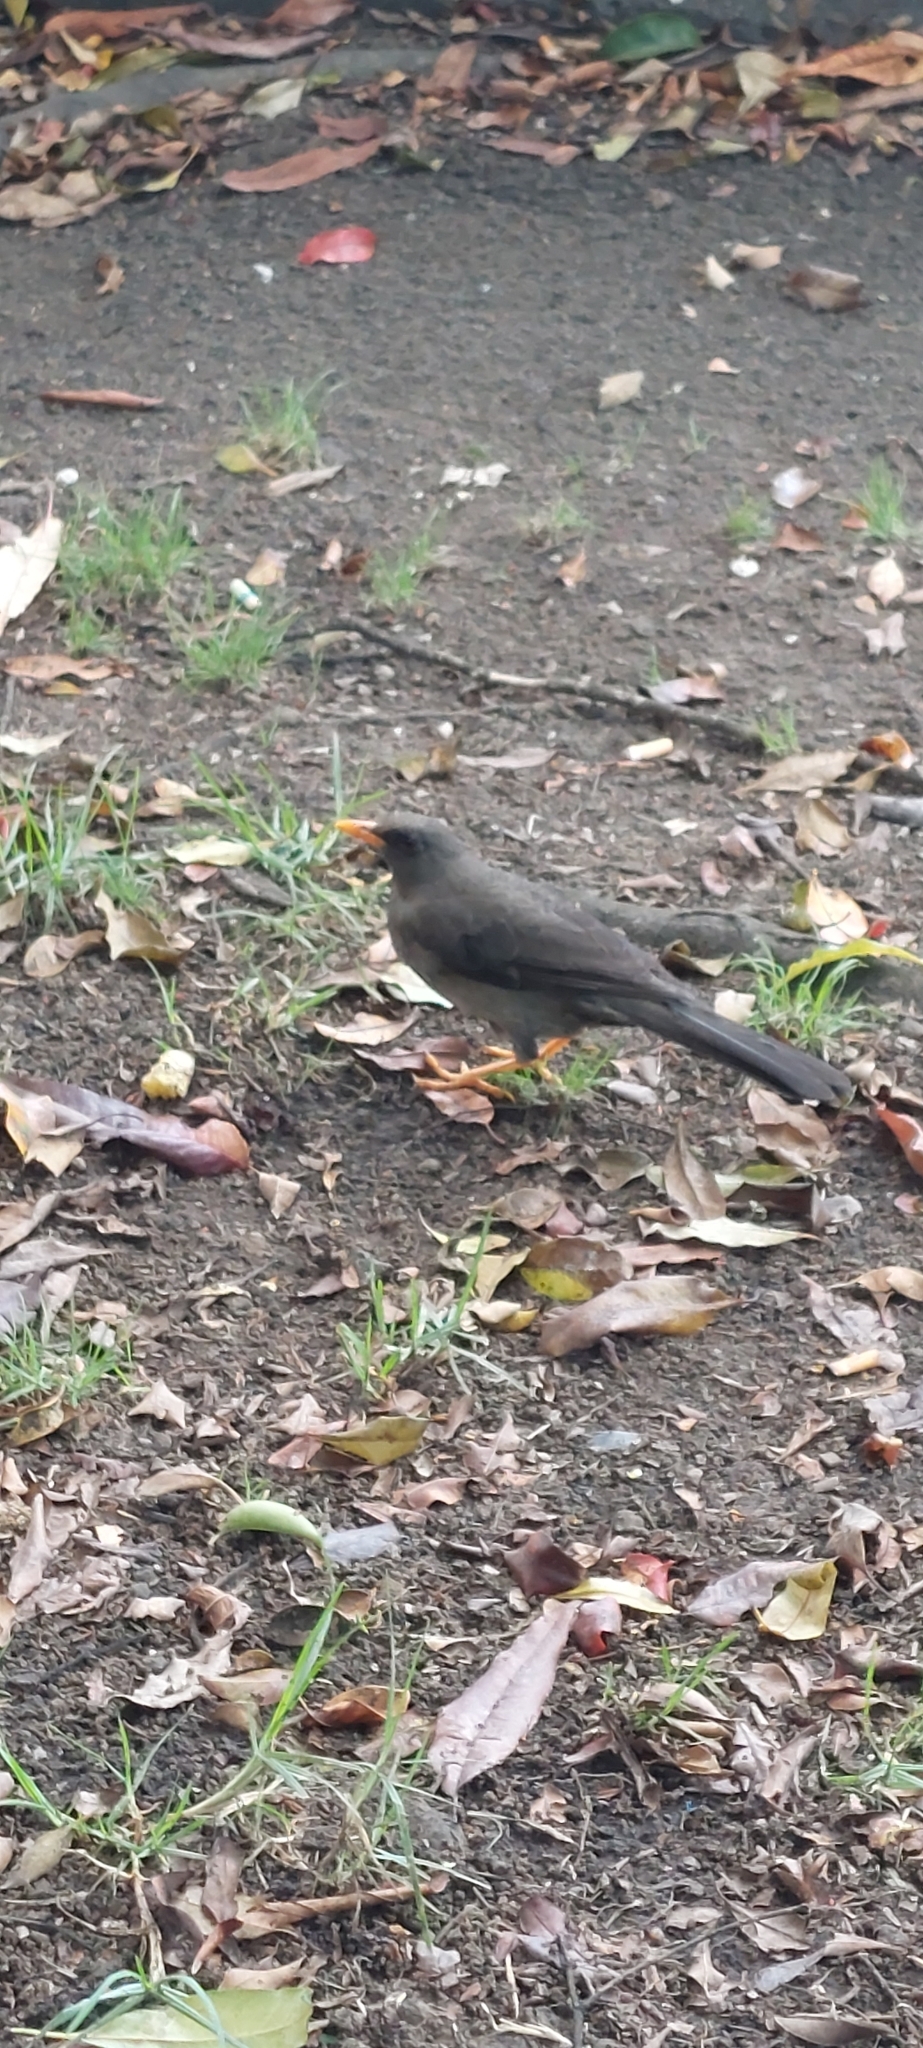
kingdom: Animalia
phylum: Chordata
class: Aves
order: Passeriformes
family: Turdidae
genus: Turdus
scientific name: Turdus fuscater
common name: Great thrush
